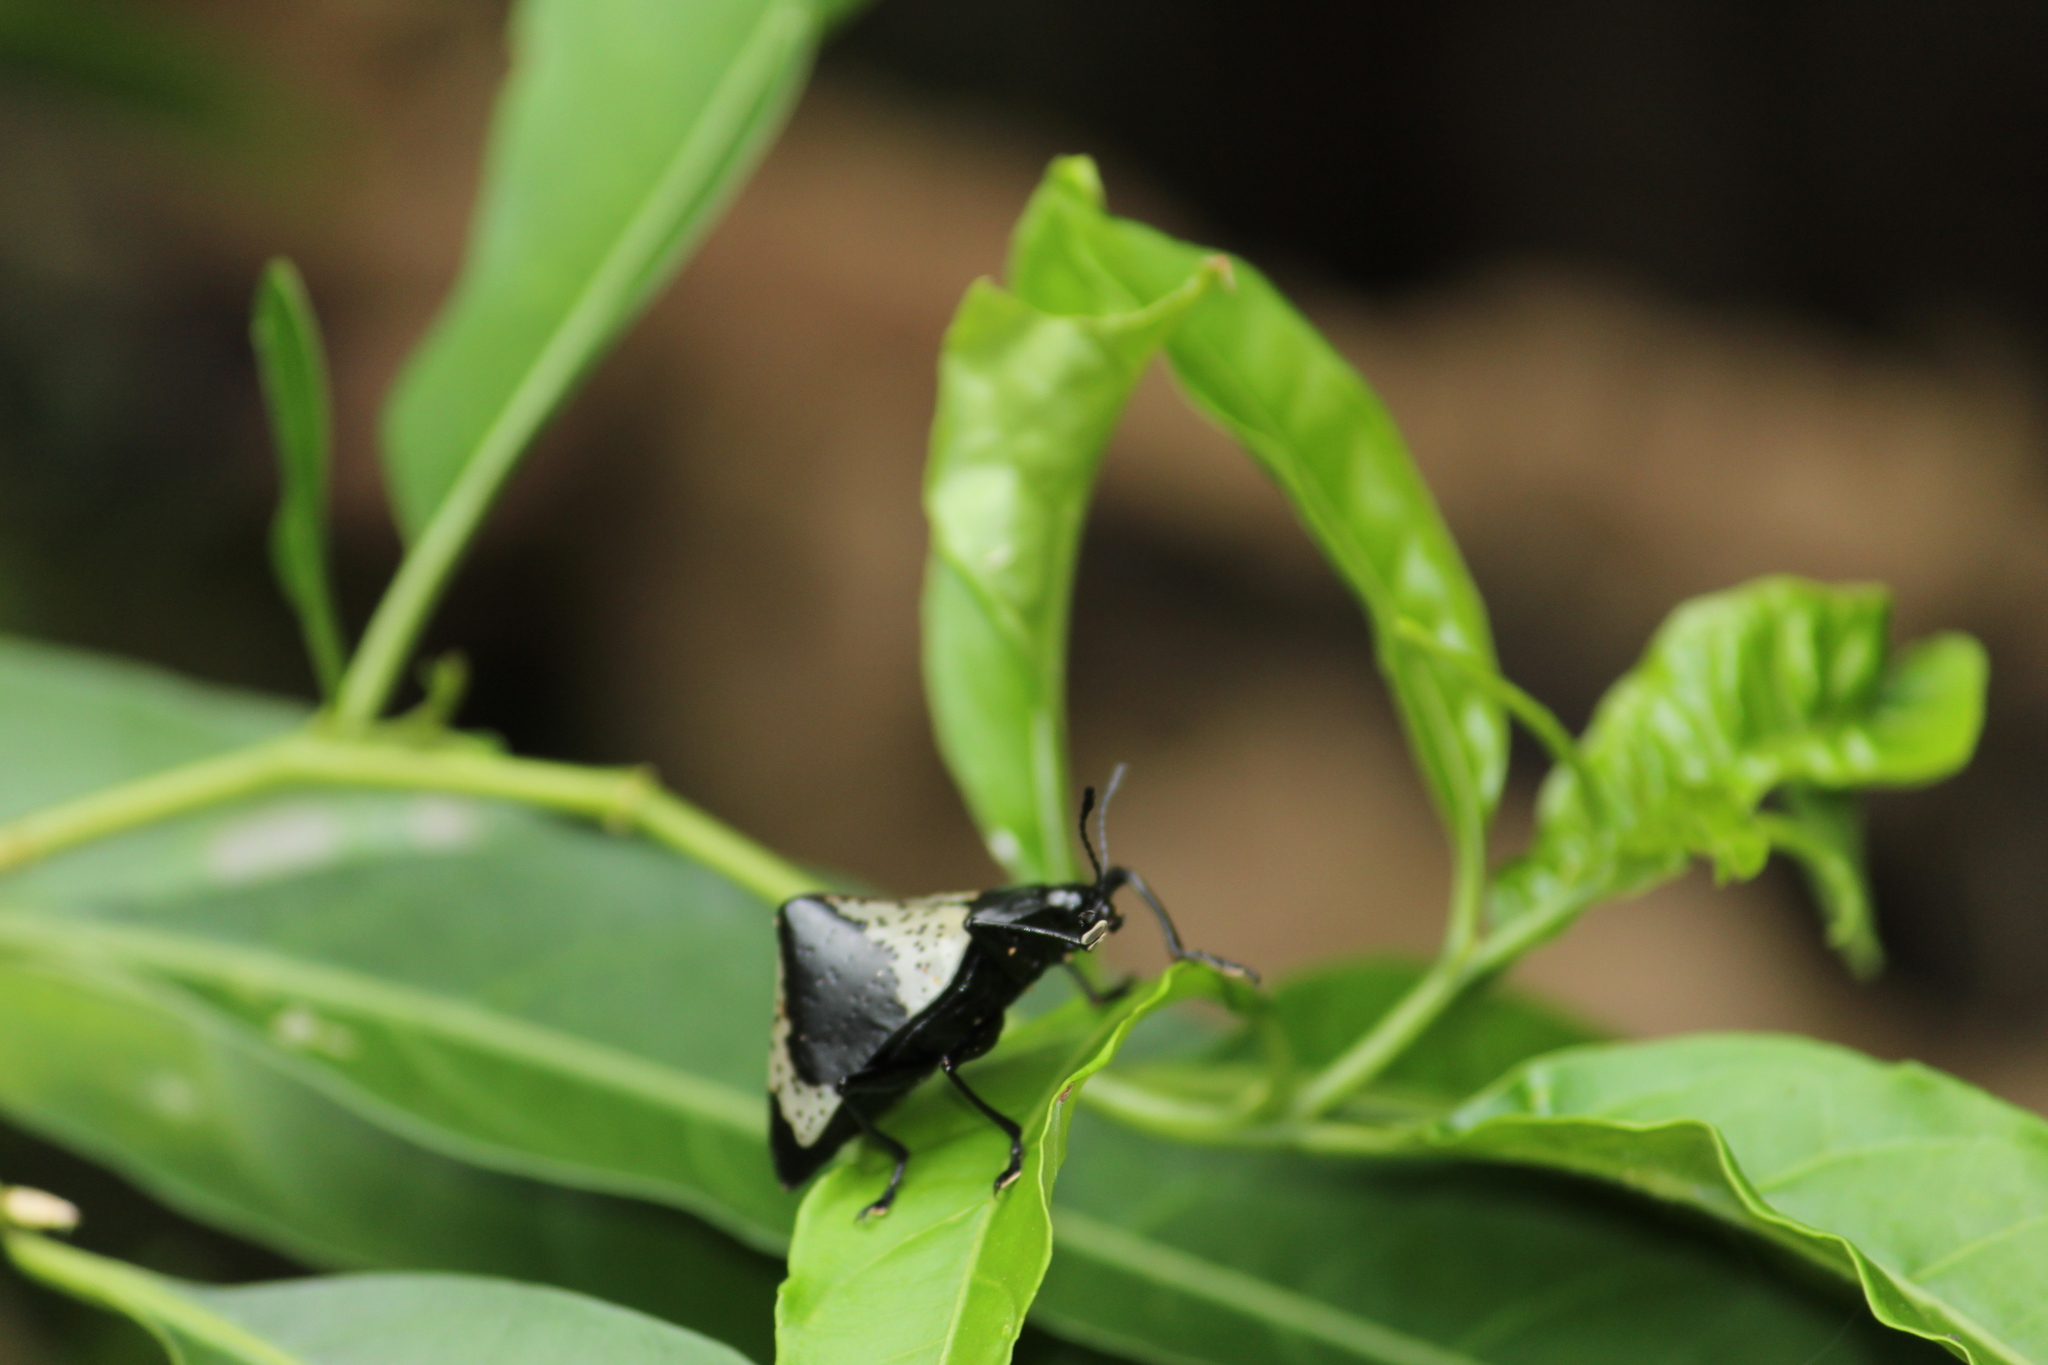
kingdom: Animalia
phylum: Arthropoda
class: Insecta
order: Coleoptera
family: Erotylidae
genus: Gibbifer
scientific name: Gibbifer
